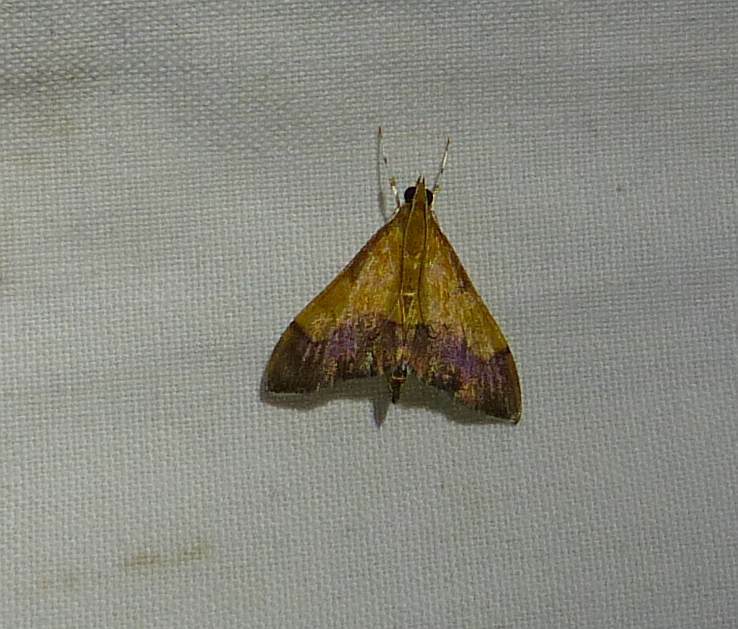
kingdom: Animalia
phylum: Arthropoda
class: Insecta
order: Lepidoptera
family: Crambidae
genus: Pyrausta
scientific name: Pyrausta bicoloralis
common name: Bicolored pyrausta moth
